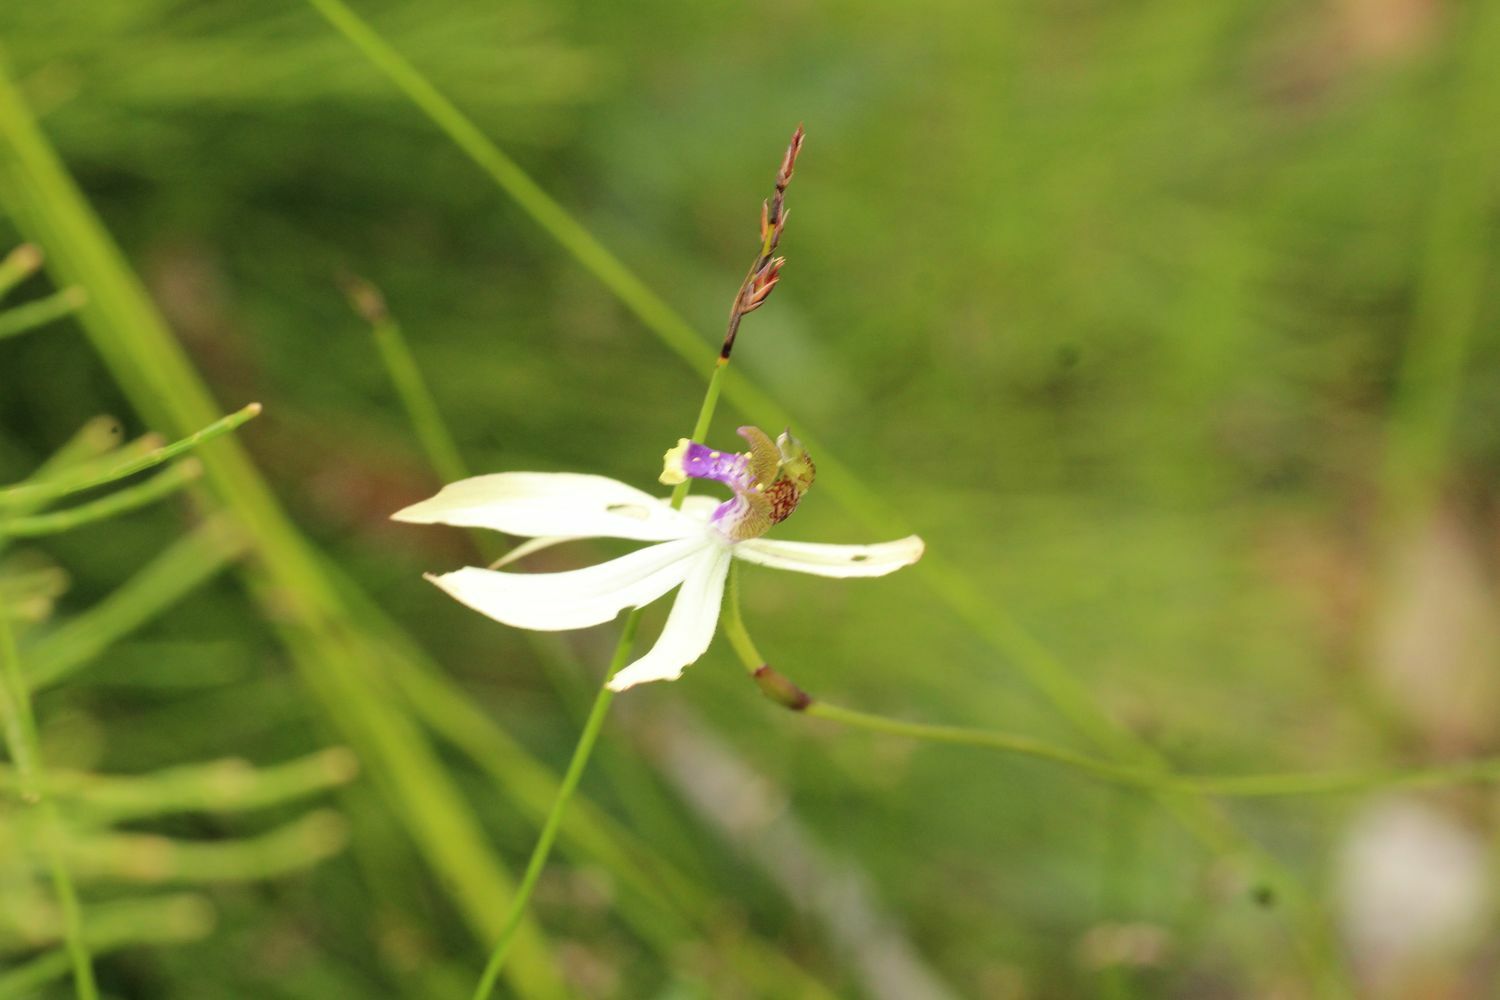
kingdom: Plantae
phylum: Tracheophyta
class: Liliopsida
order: Asparagales
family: Orchidaceae
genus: Praecoxanthus
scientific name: Praecoxanthus aphyllus
